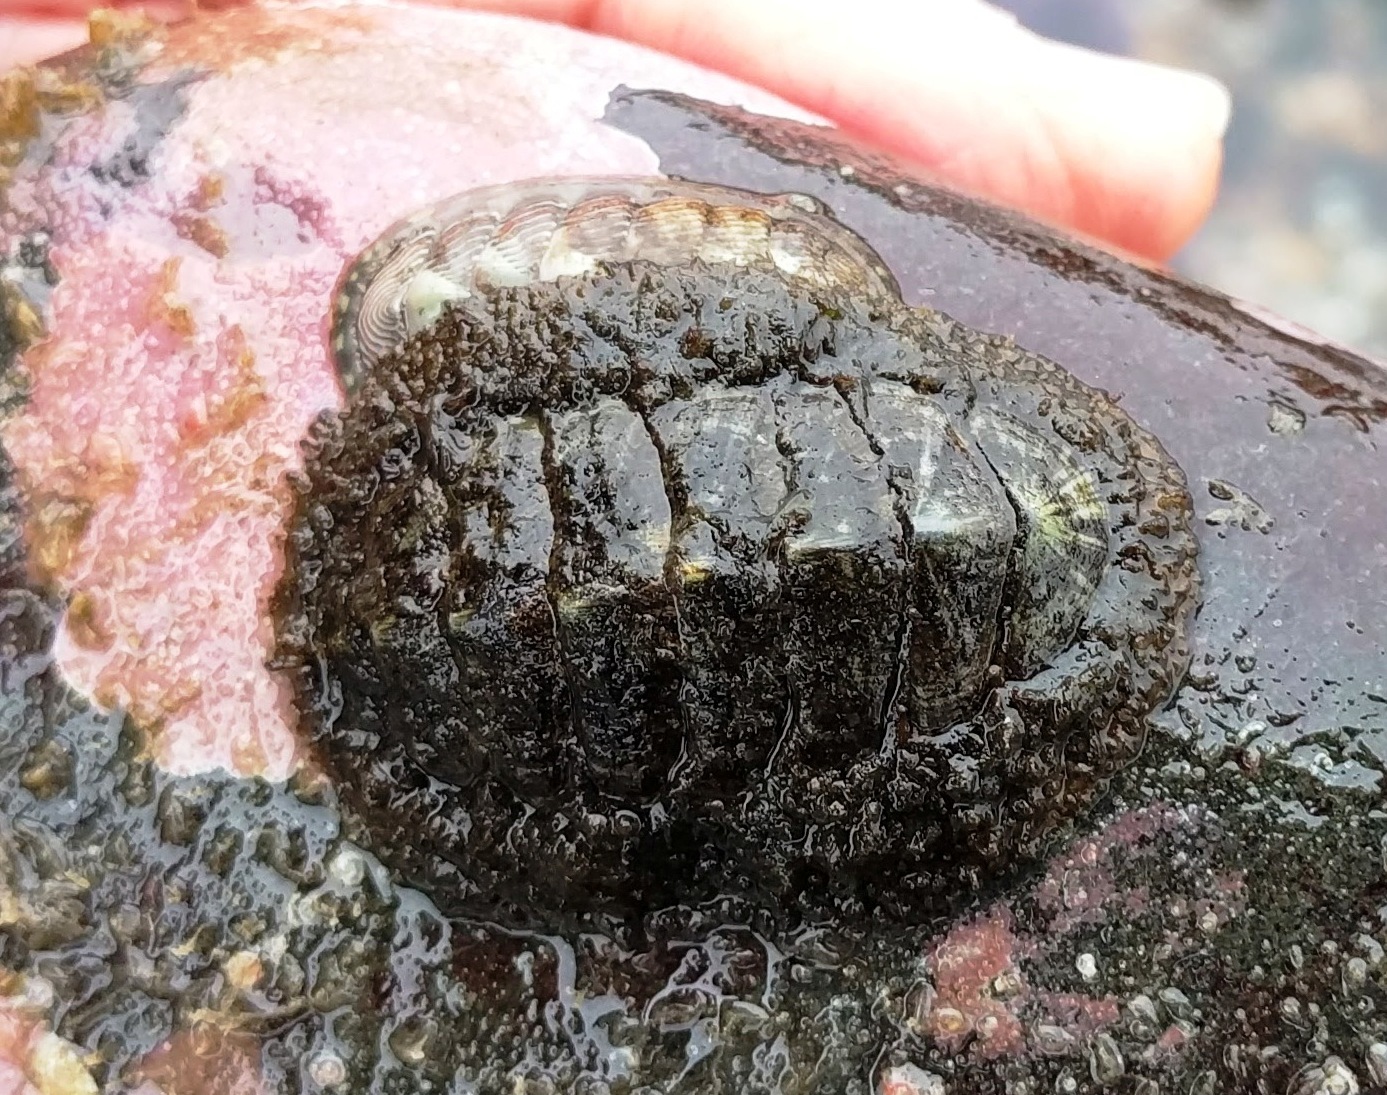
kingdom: Animalia
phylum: Mollusca
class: Polyplacophora
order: Chitonida
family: Mopaliidae
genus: Mopalia
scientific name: Mopalia lignosa
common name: Woody chiton
